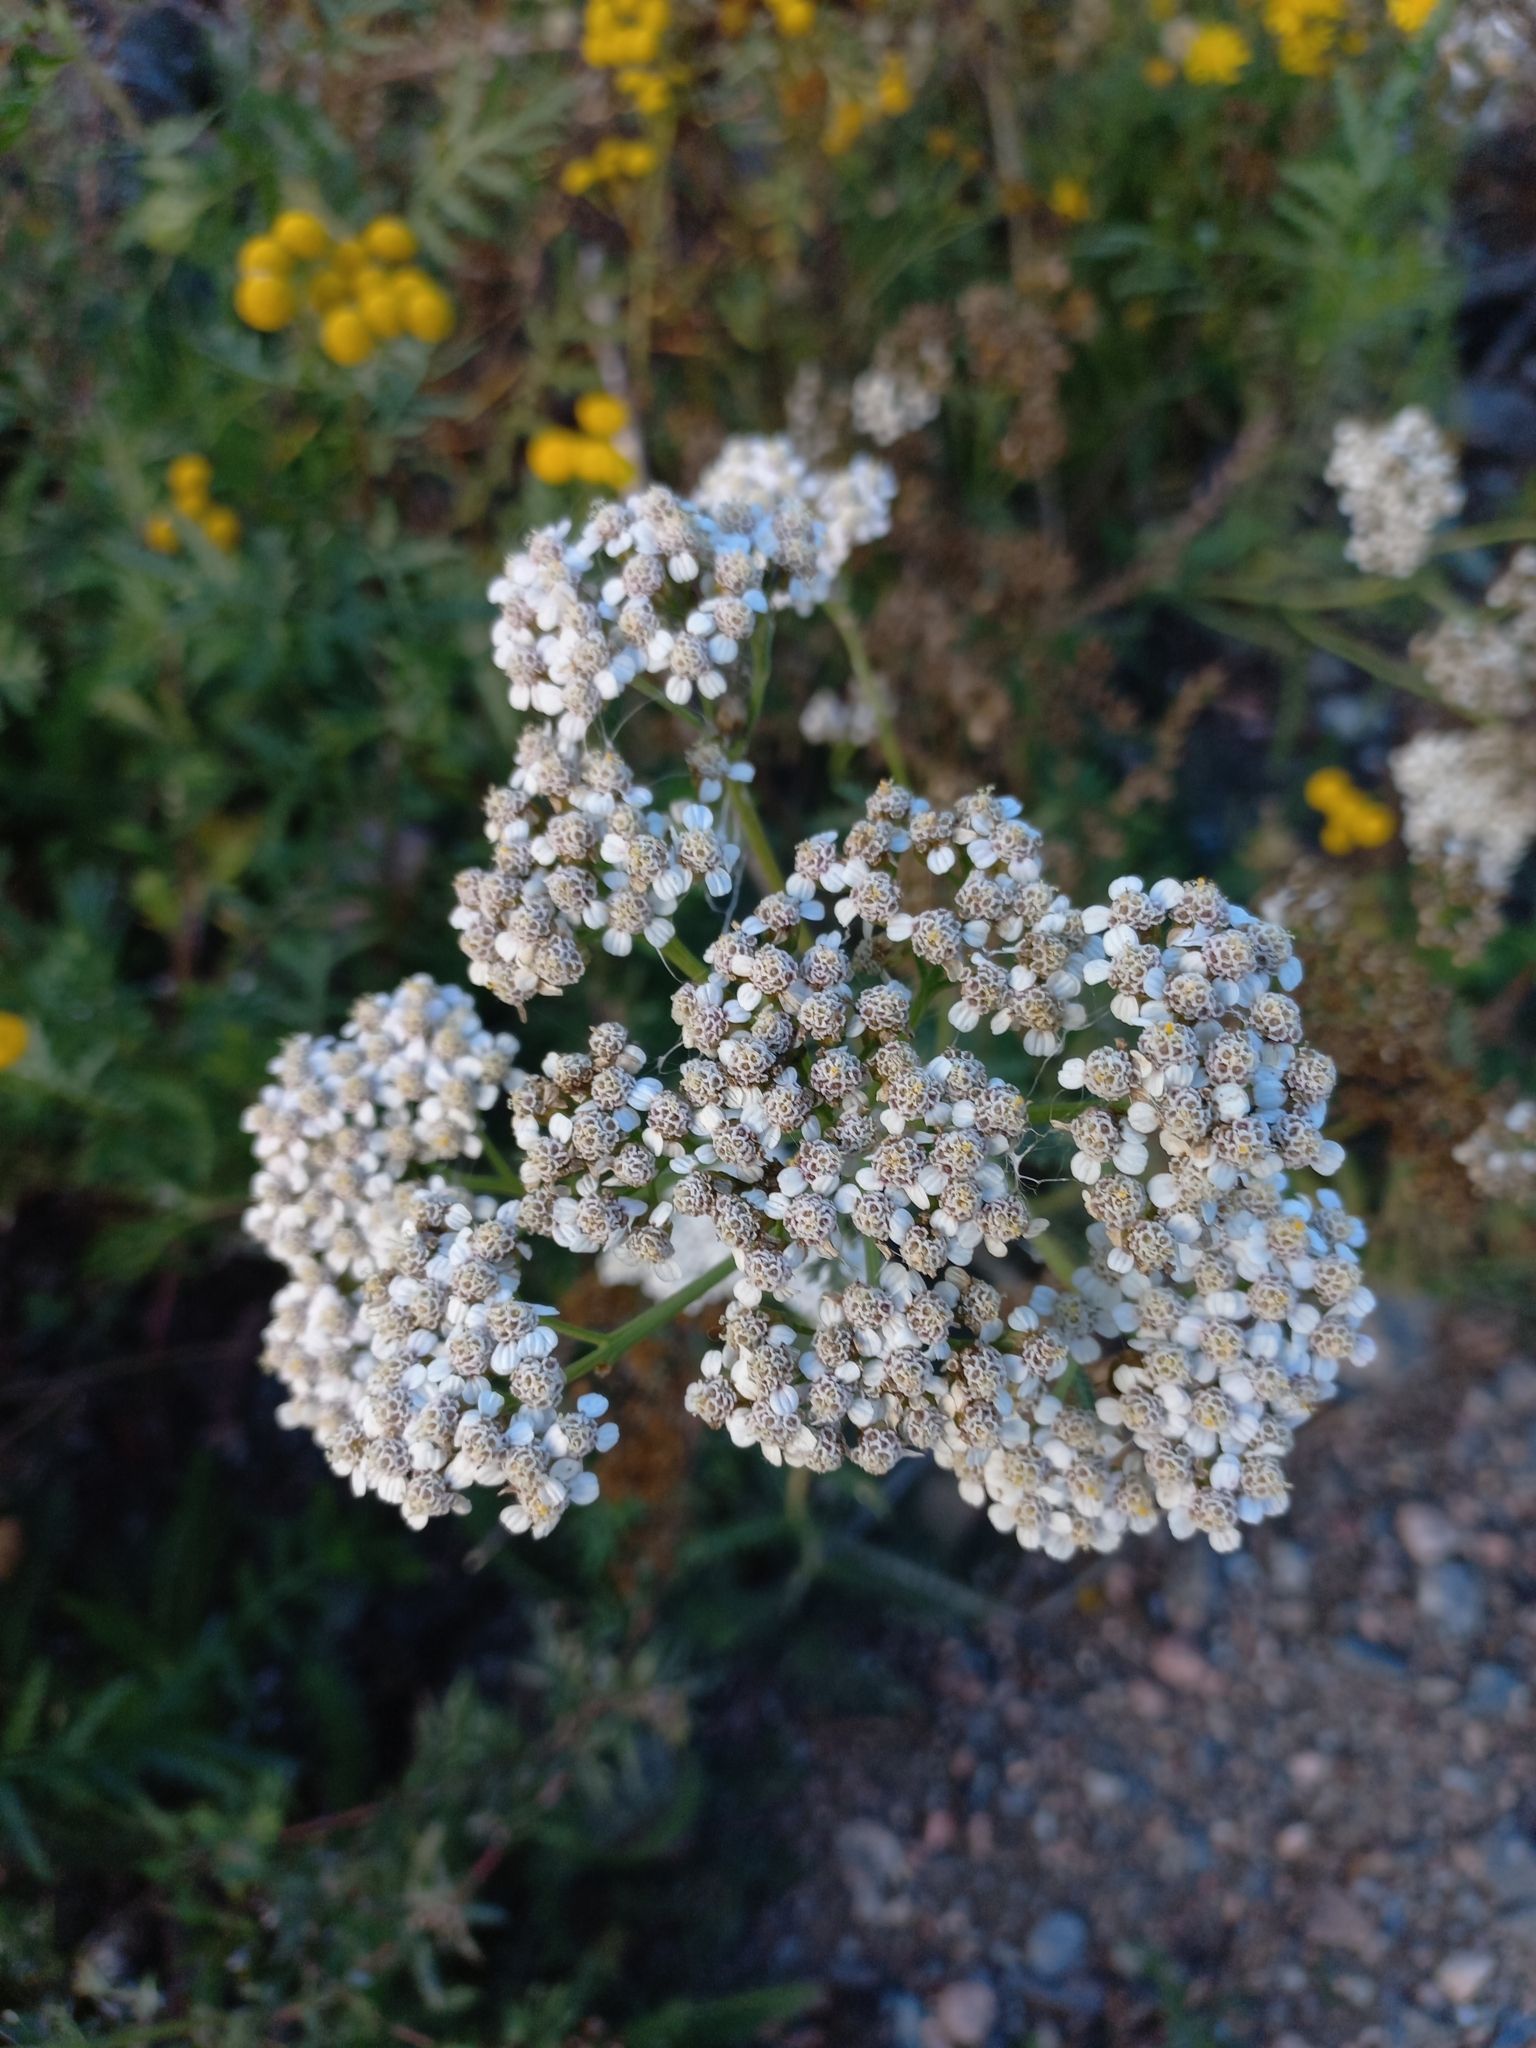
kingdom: Plantae
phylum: Tracheophyta
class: Magnoliopsida
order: Asterales
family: Asteraceae
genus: Achillea
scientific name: Achillea millefolium
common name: Yarrow
